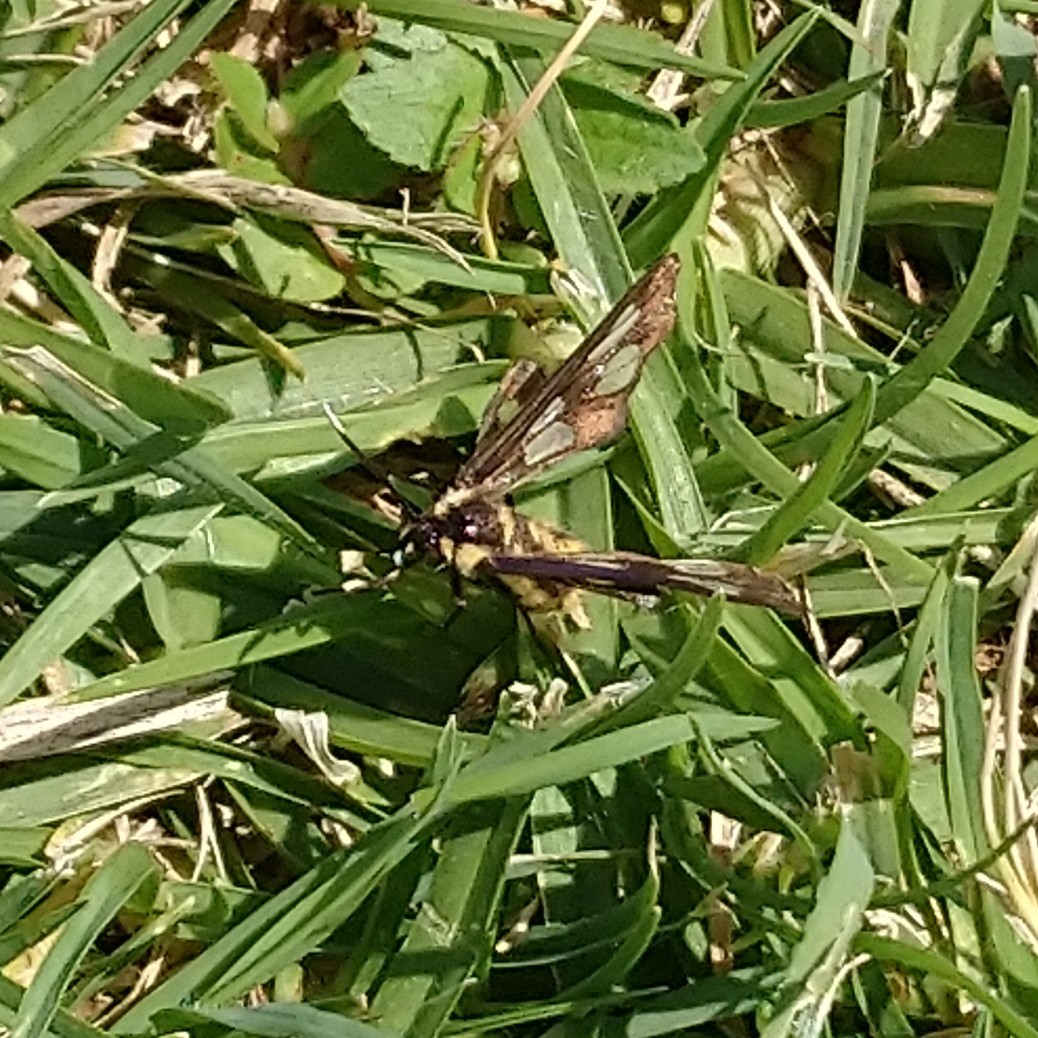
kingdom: Animalia
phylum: Arthropoda
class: Insecta
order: Lepidoptera
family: Erebidae
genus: Ceryx
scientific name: Ceryx anthraciformis
